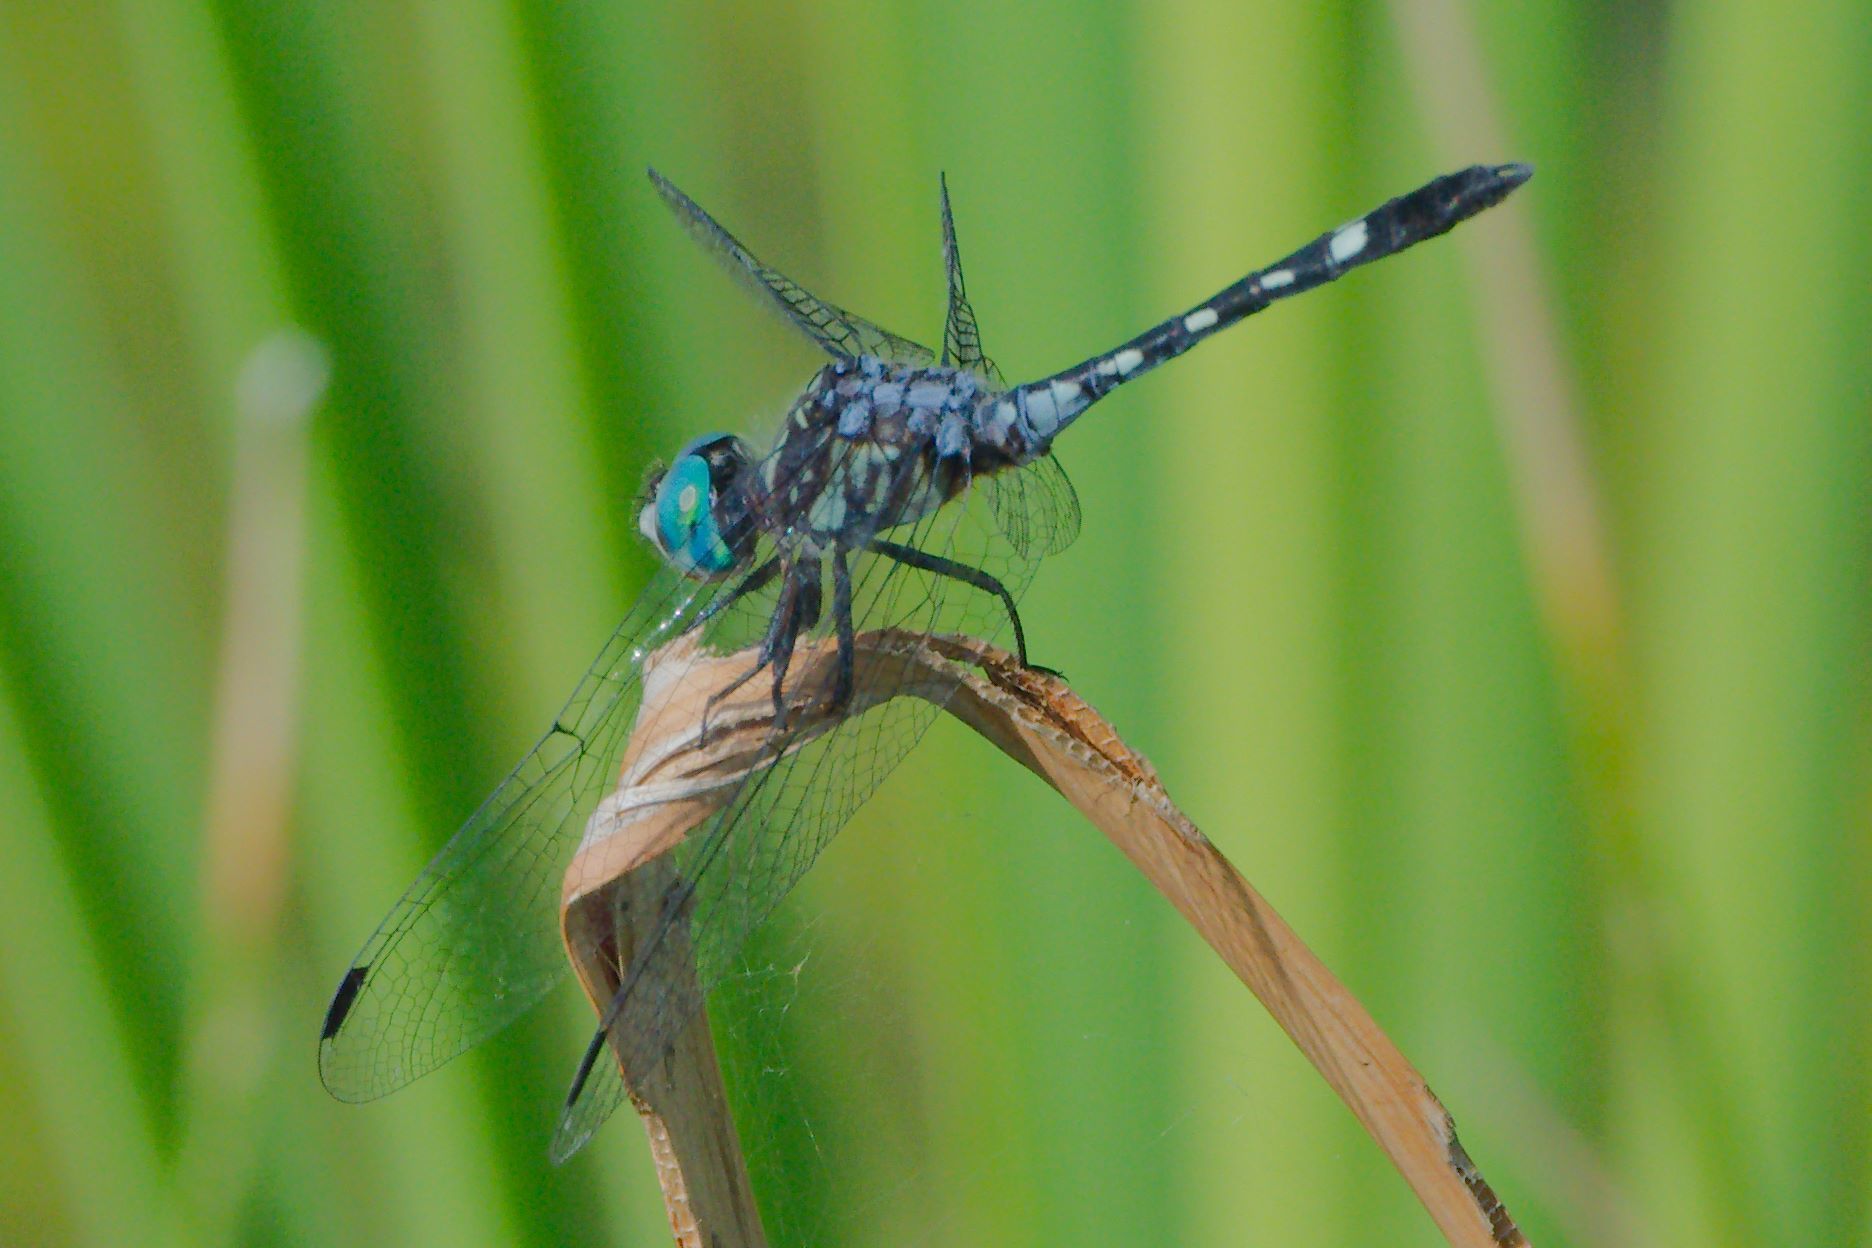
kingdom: Animalia
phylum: Arthropoda
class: Insecta
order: Odonata
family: Libellulidae
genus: Micrathyria
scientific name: Micrathyria hagenii
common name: Thornbush dasher
